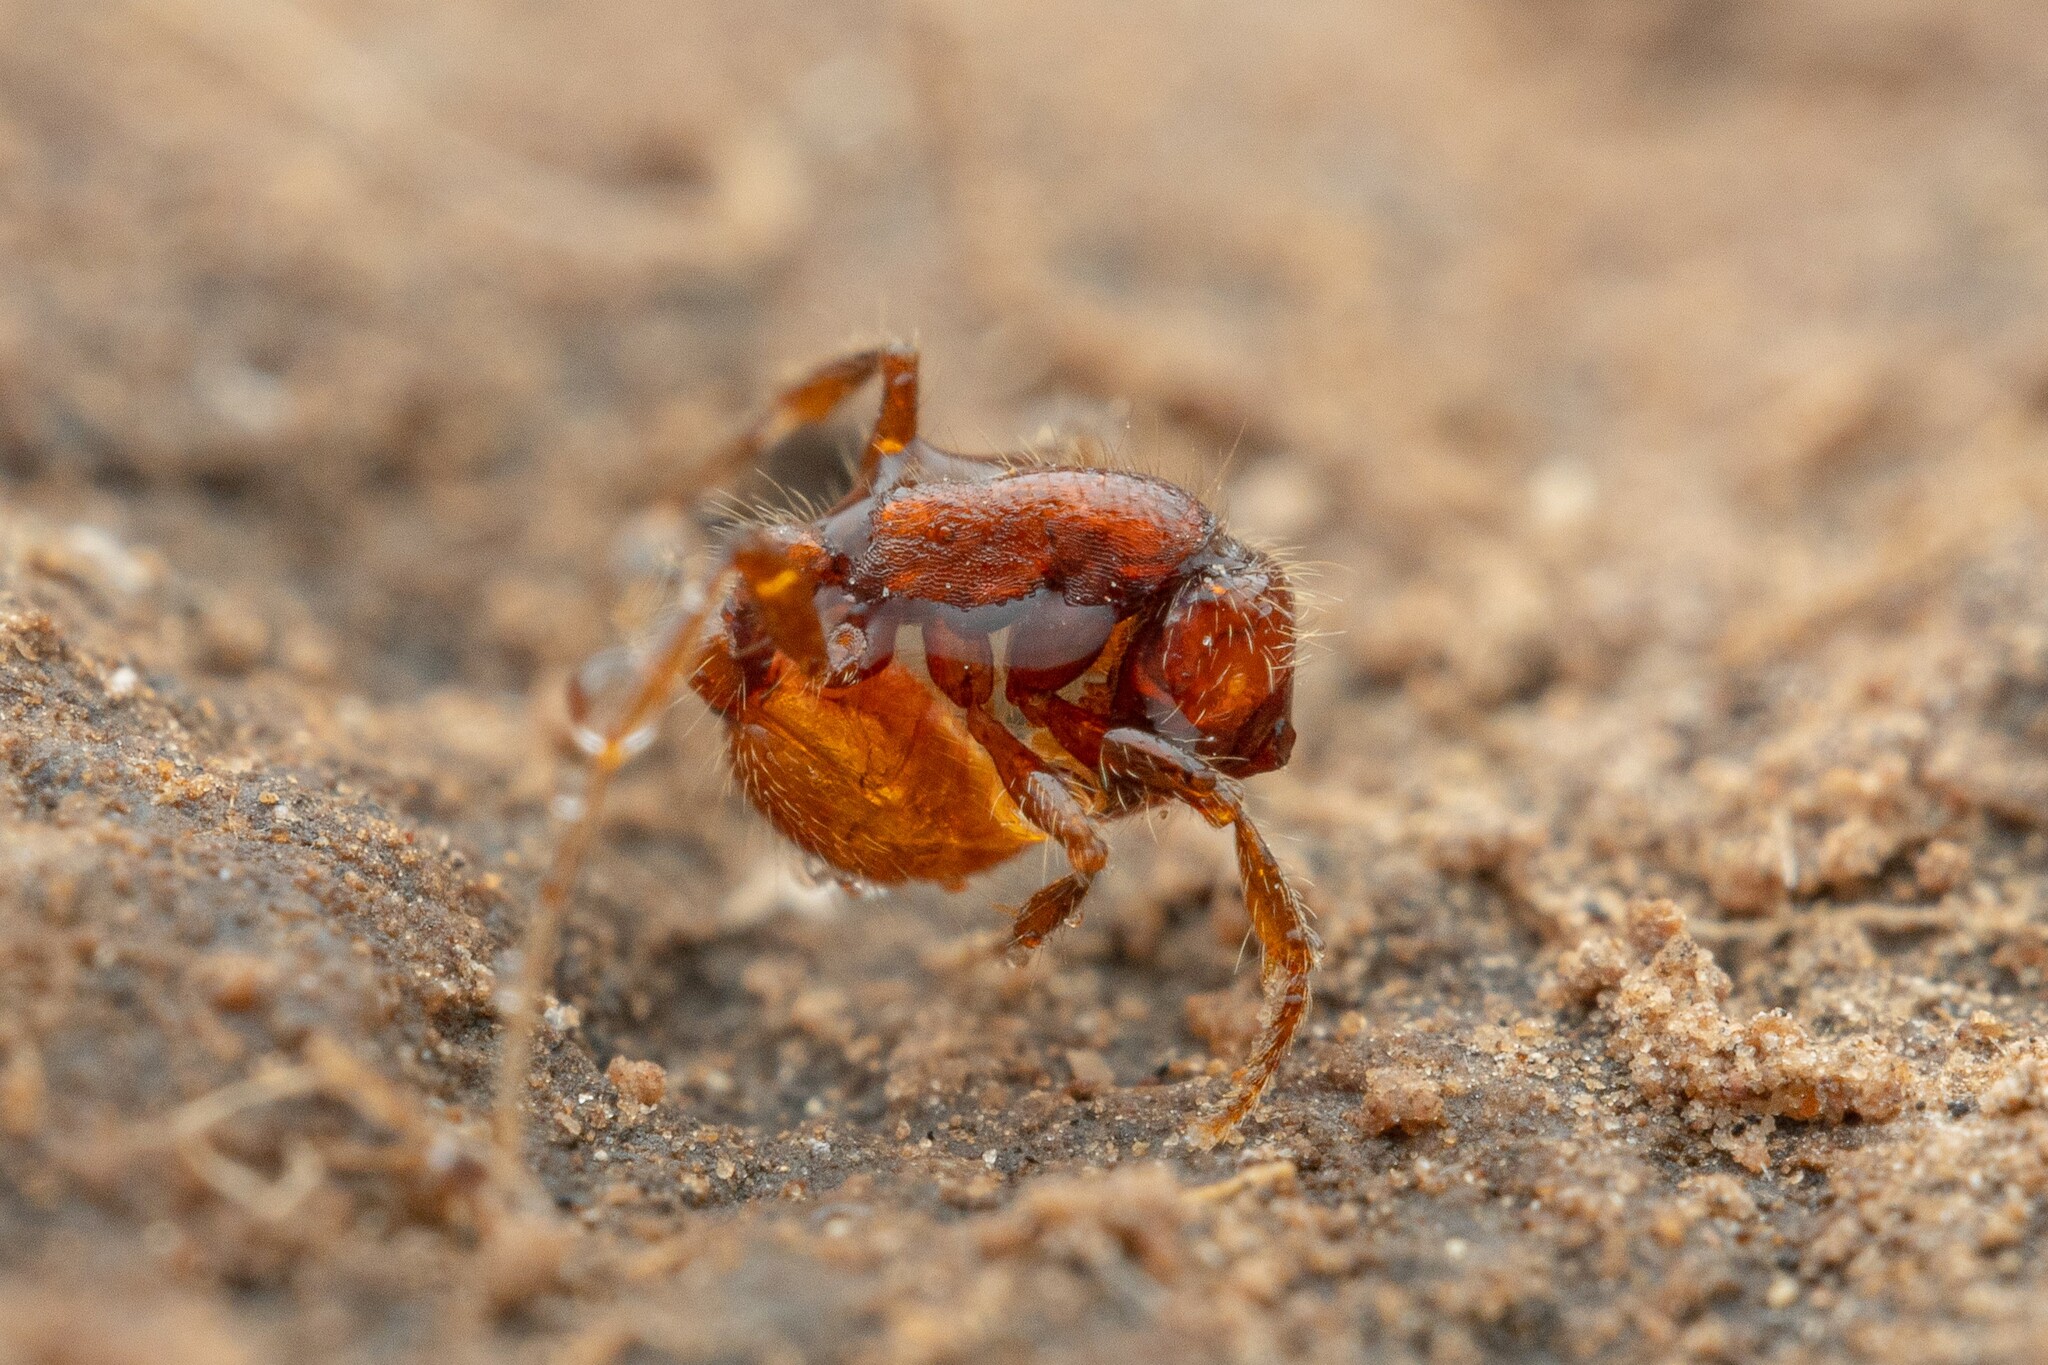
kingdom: Animalia
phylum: Arthropoda
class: Insecta
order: Hymenoptera
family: Formicidae
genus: Neivamyrmex
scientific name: Neivamyrmex harrisii
